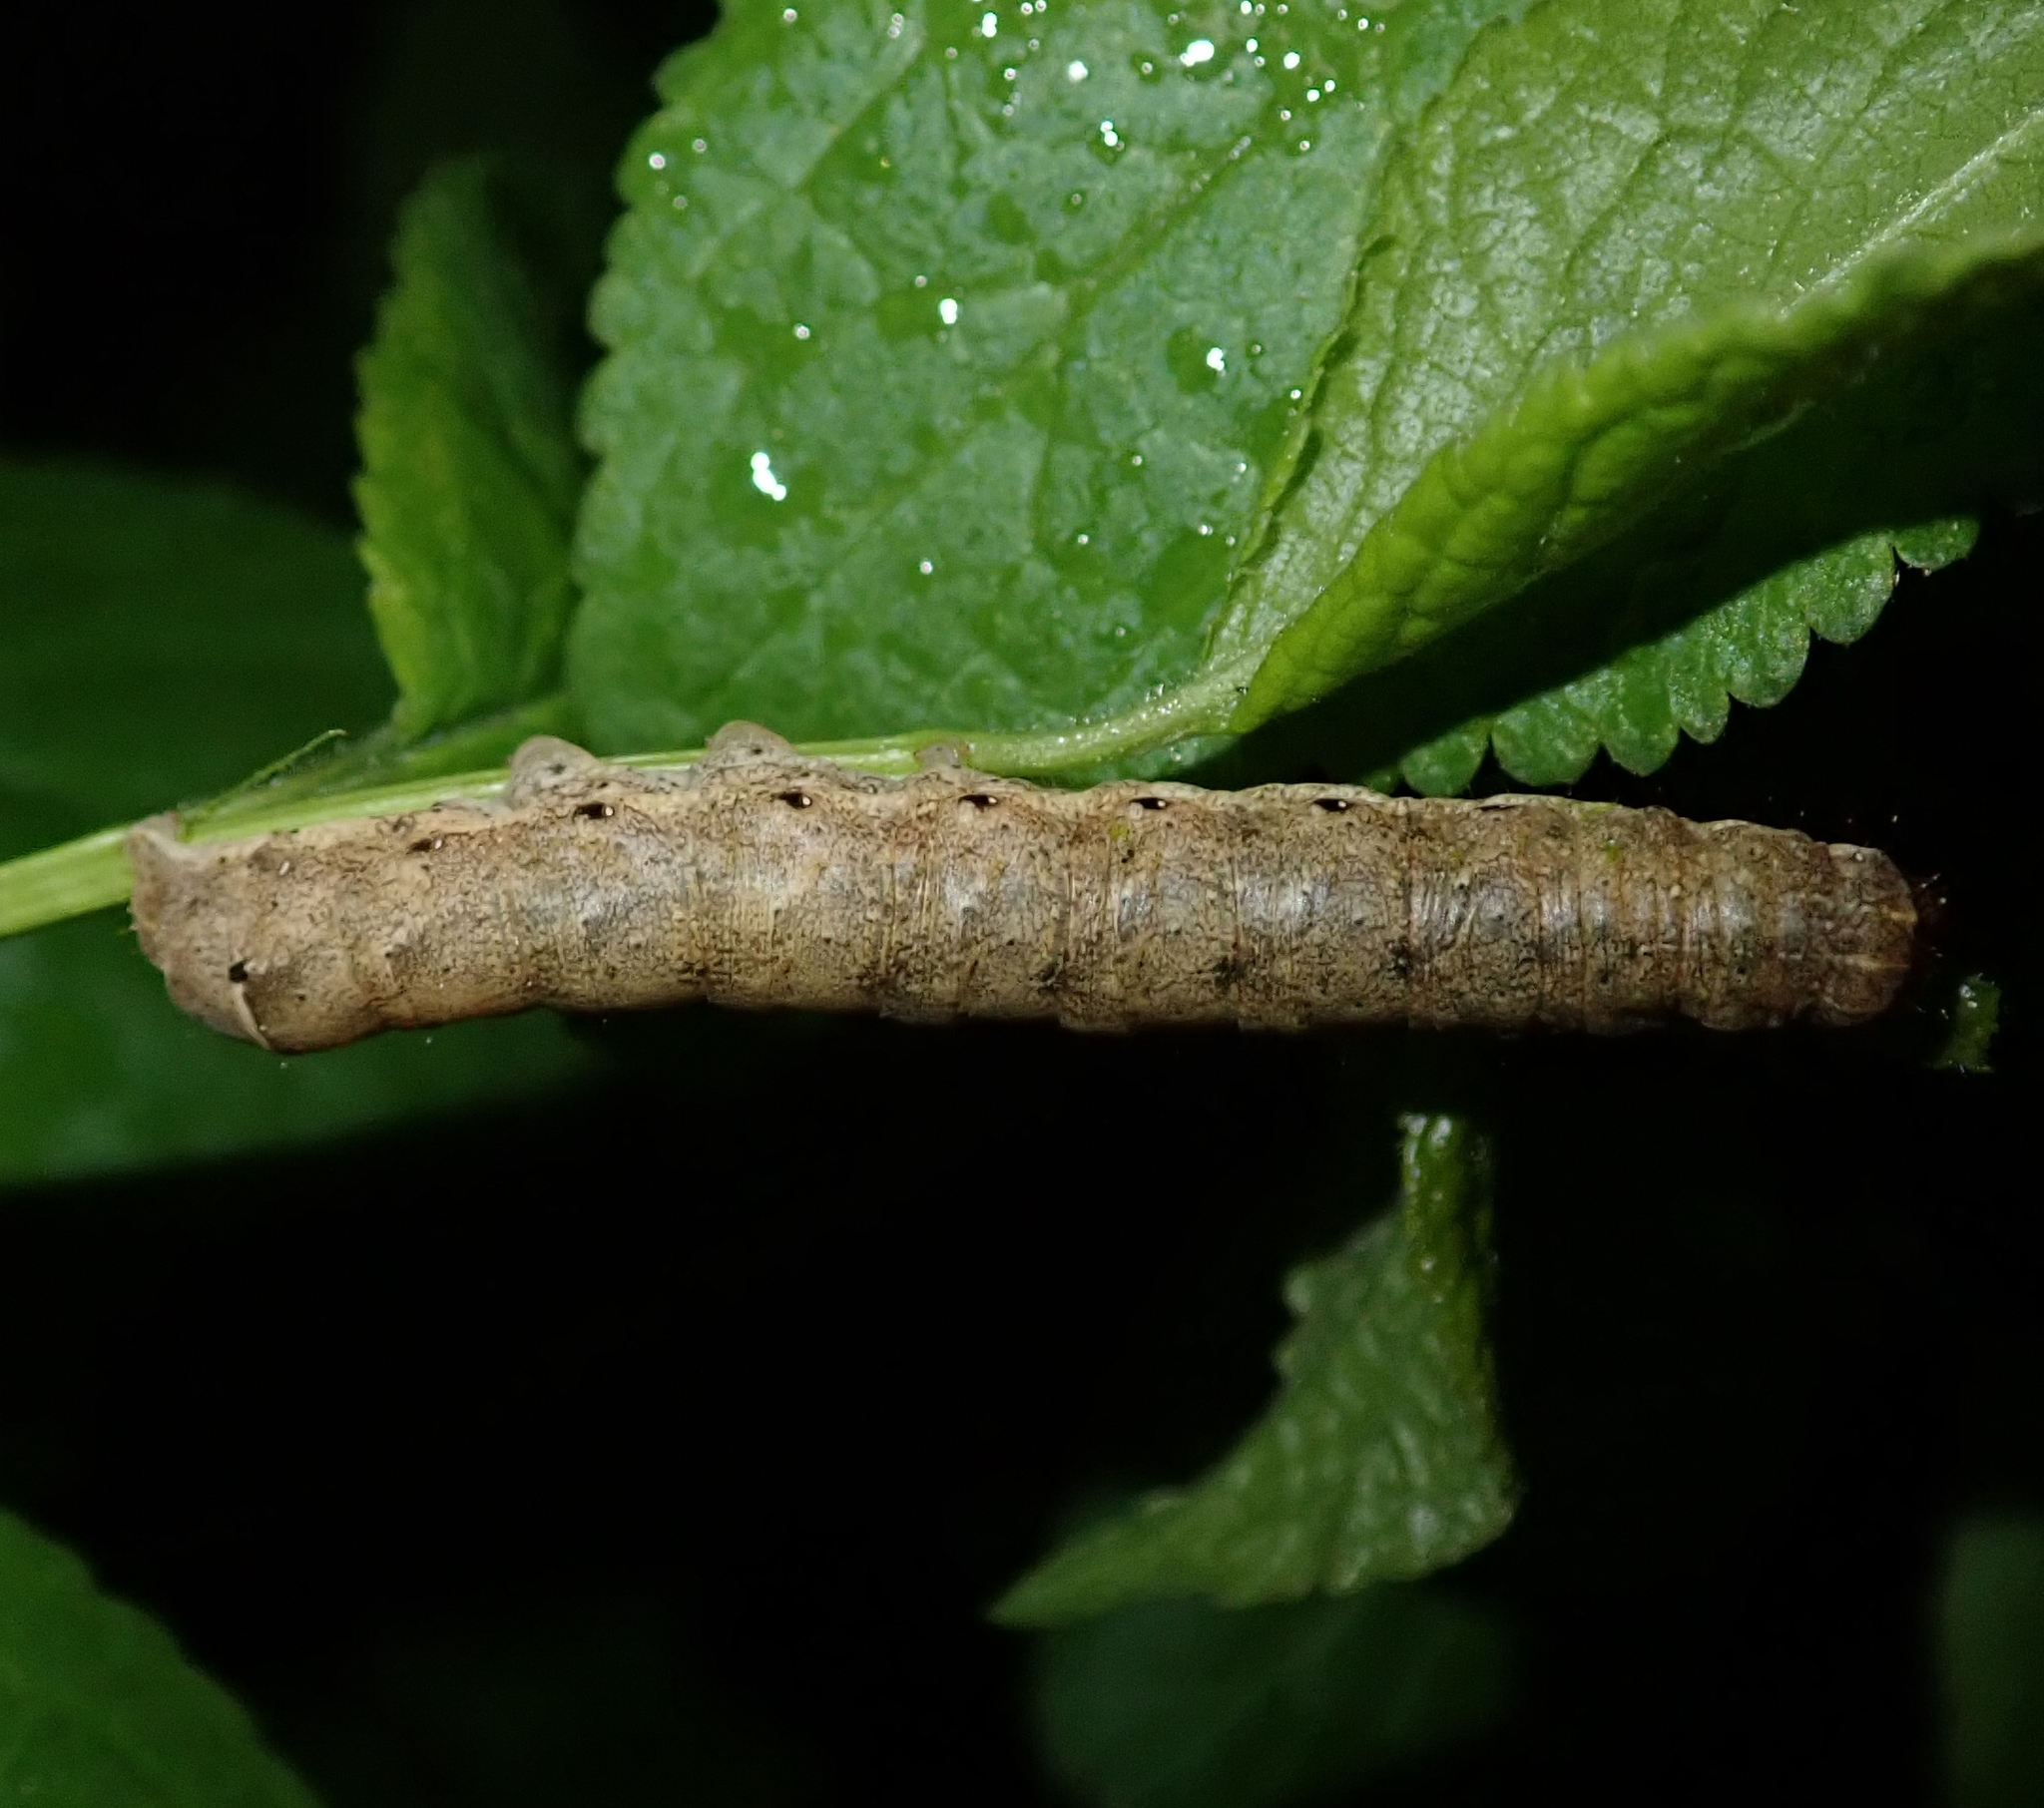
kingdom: Animalia
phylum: Arthropoda
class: Insecta
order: Lepidoptera
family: Noctuidae
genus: Noctua
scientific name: Noctua fimbriata
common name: Broad-bordered yellow underwing
